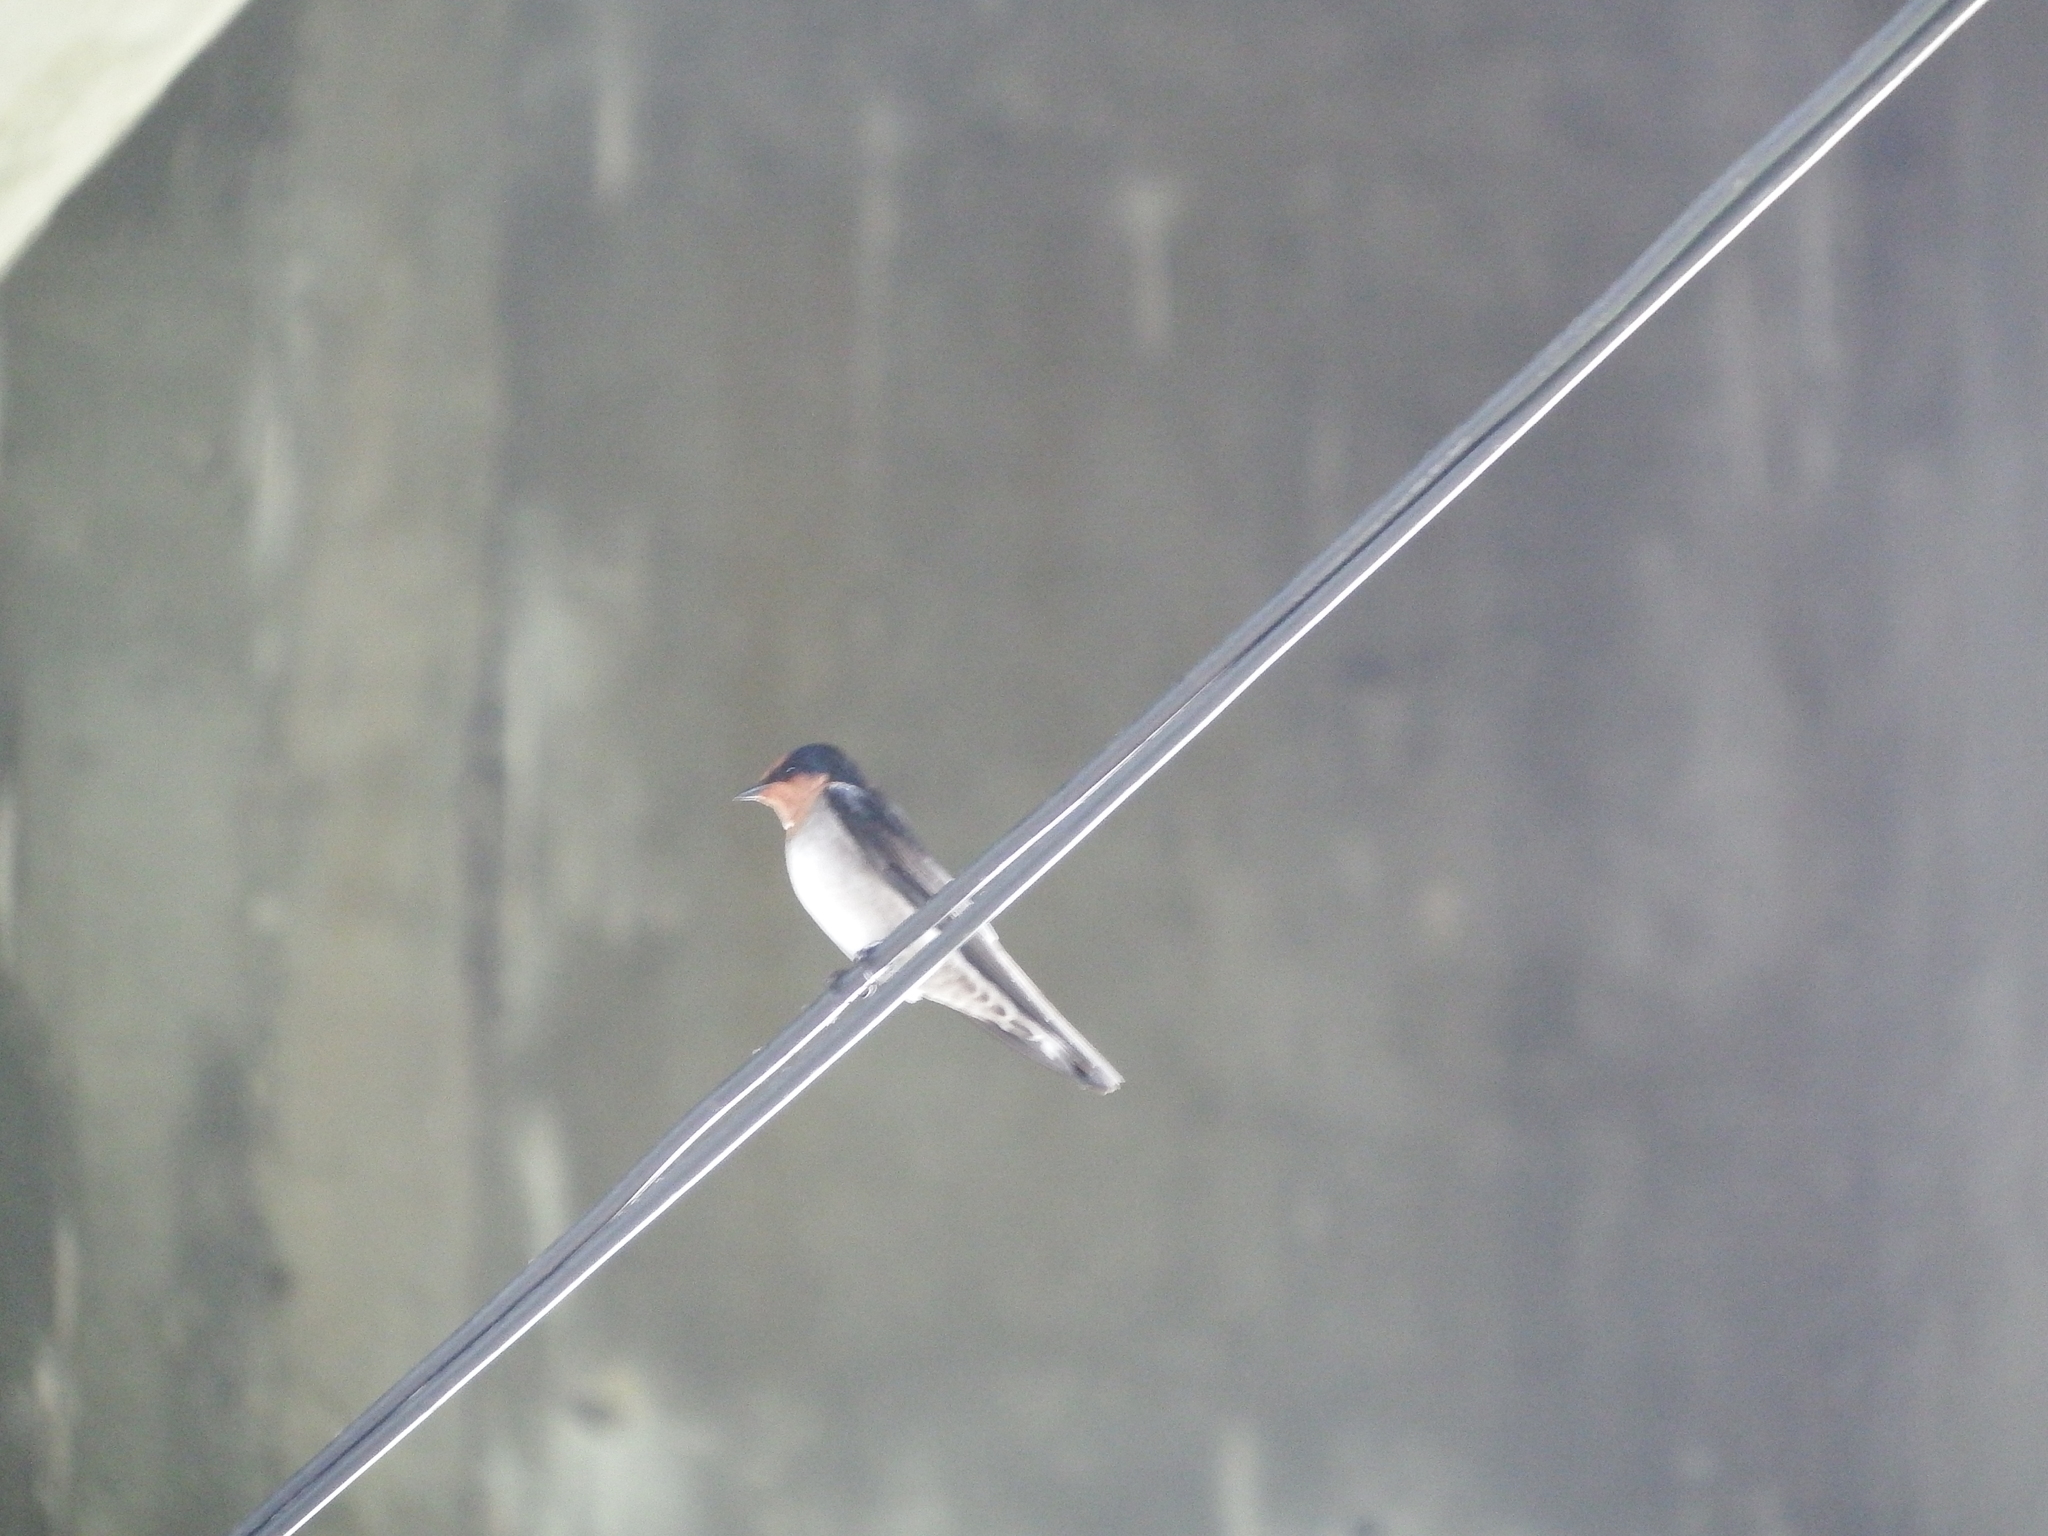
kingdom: Animalia
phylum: Chordata
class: Aves
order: Passeriformes
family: Hirundinidae
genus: Hirundo
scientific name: Hirundo tahitica
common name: Pacific swallow
